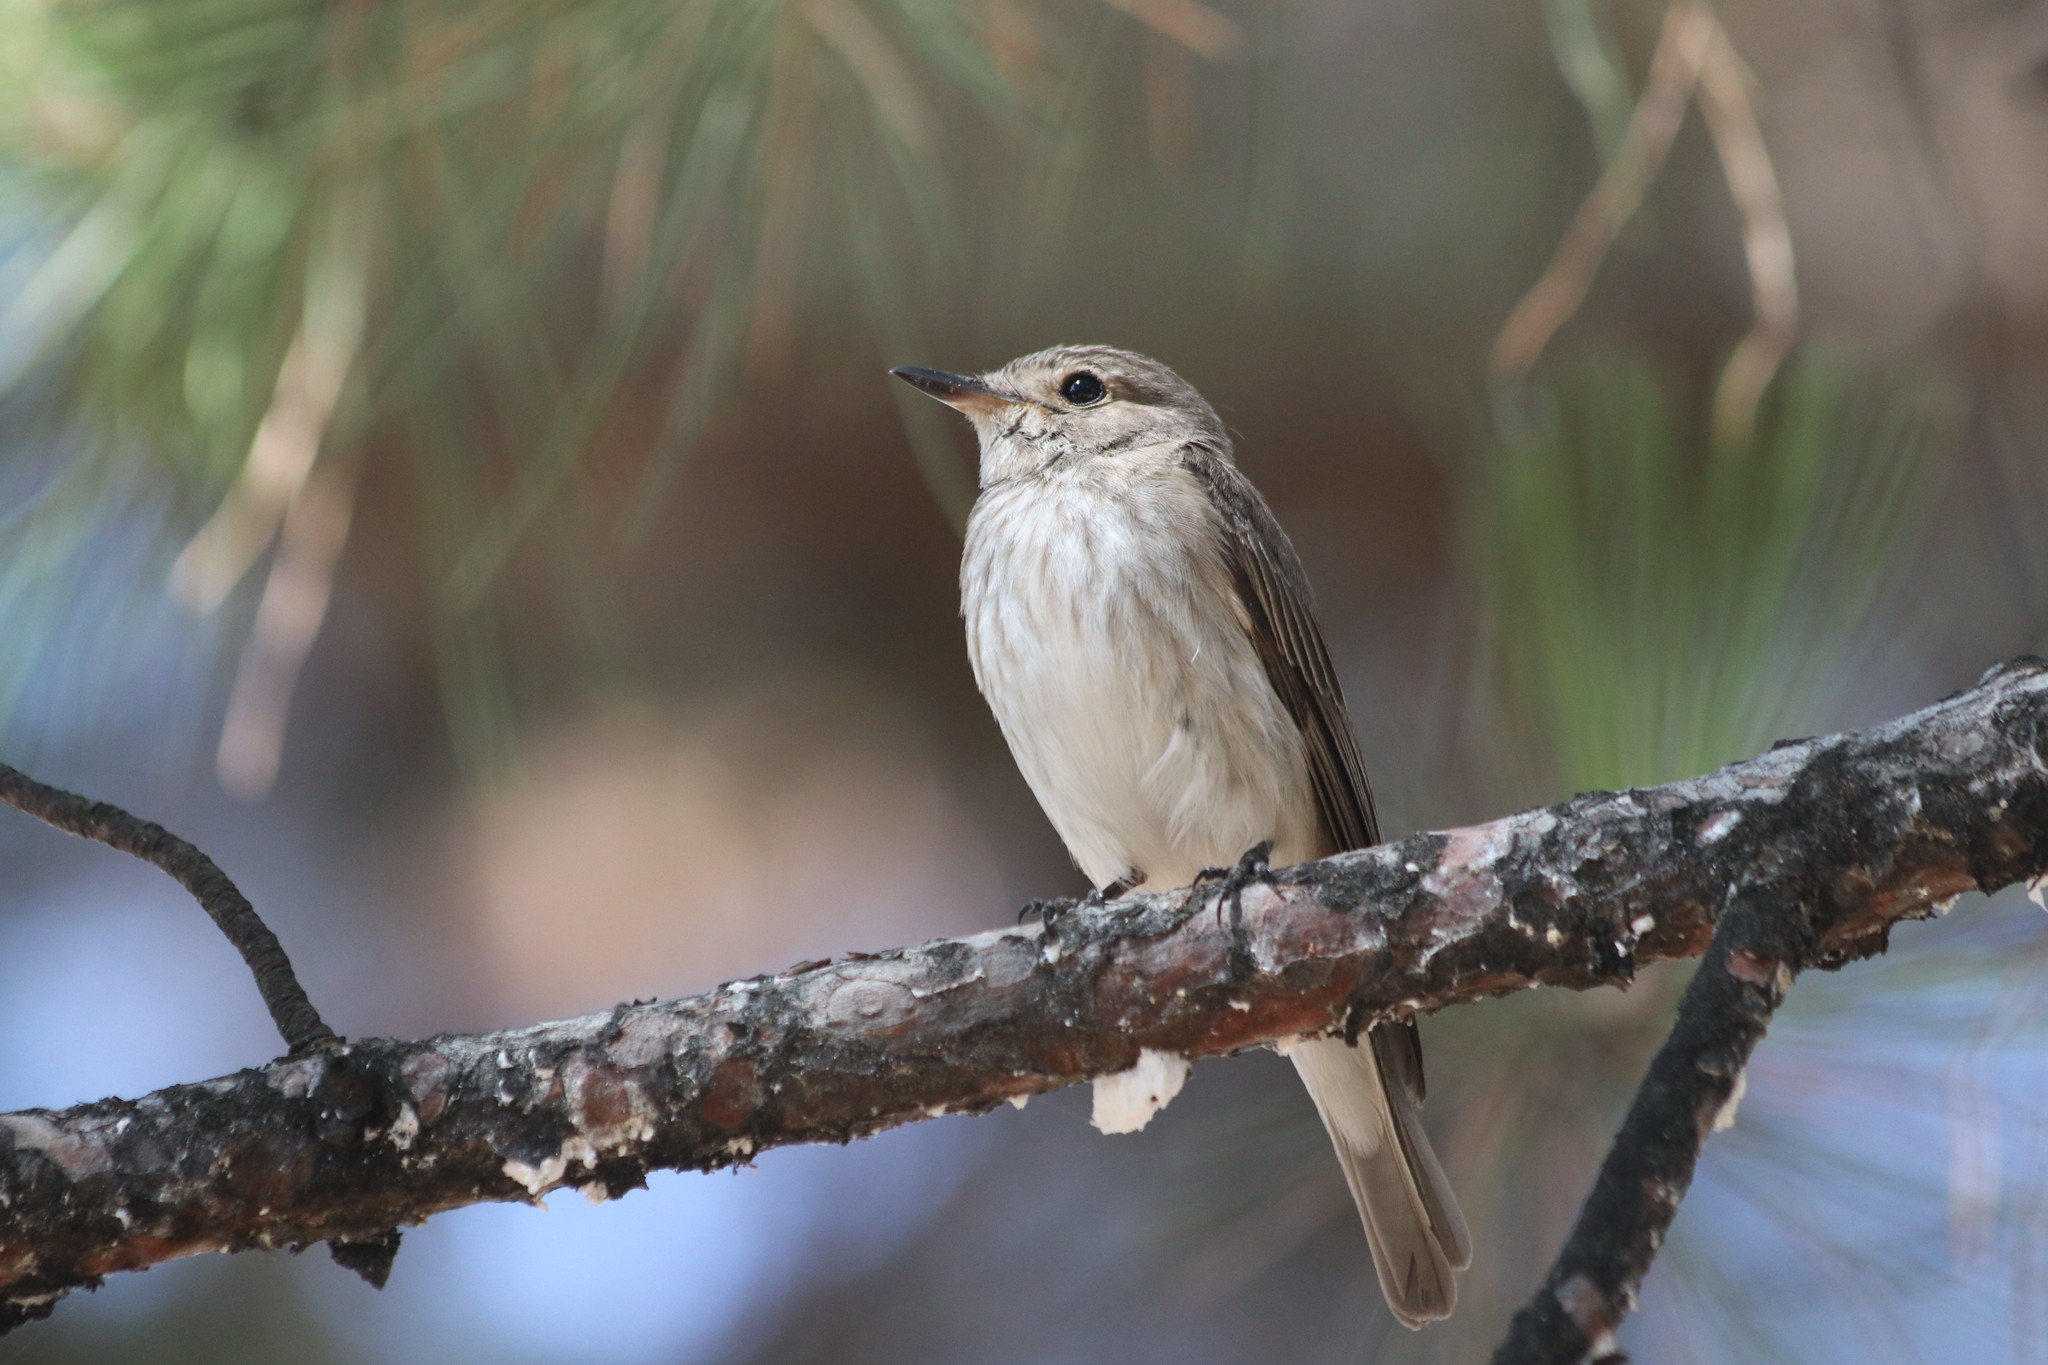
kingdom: Animalia
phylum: Chordata
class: Aves
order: Passeriformes
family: Muscicapidae
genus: Muscicapa
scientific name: Muscicapa striata
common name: Spotted flycatcher
